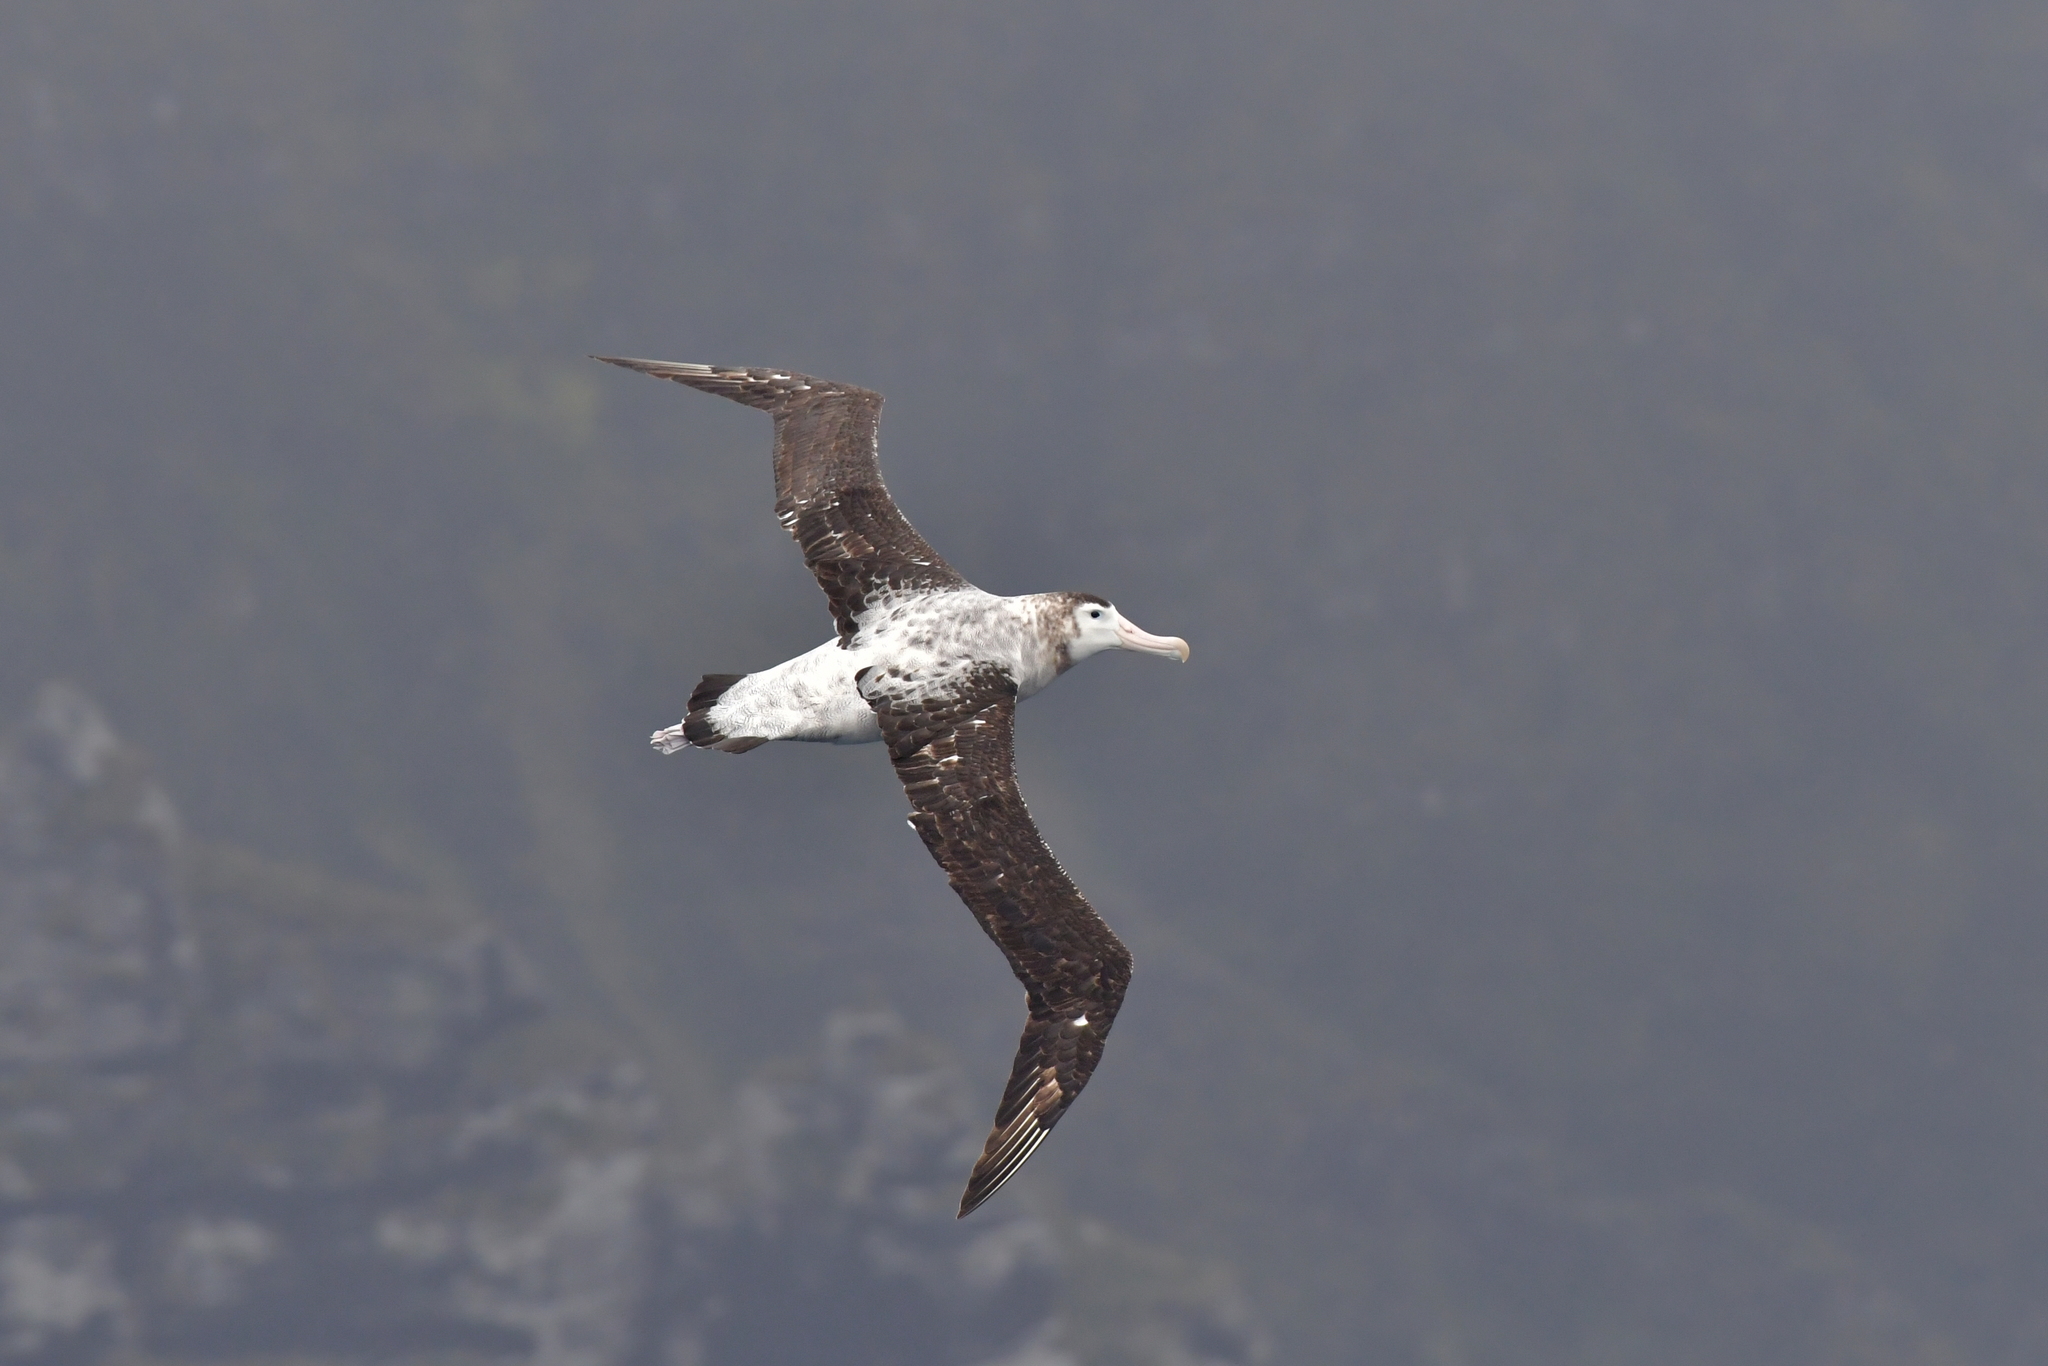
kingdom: Animalia
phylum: Chordata
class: Aves
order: Procellariiformes
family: Diomedeidae
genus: Diomedea
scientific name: Diomedea antipodensis
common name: Antipodean albatross
